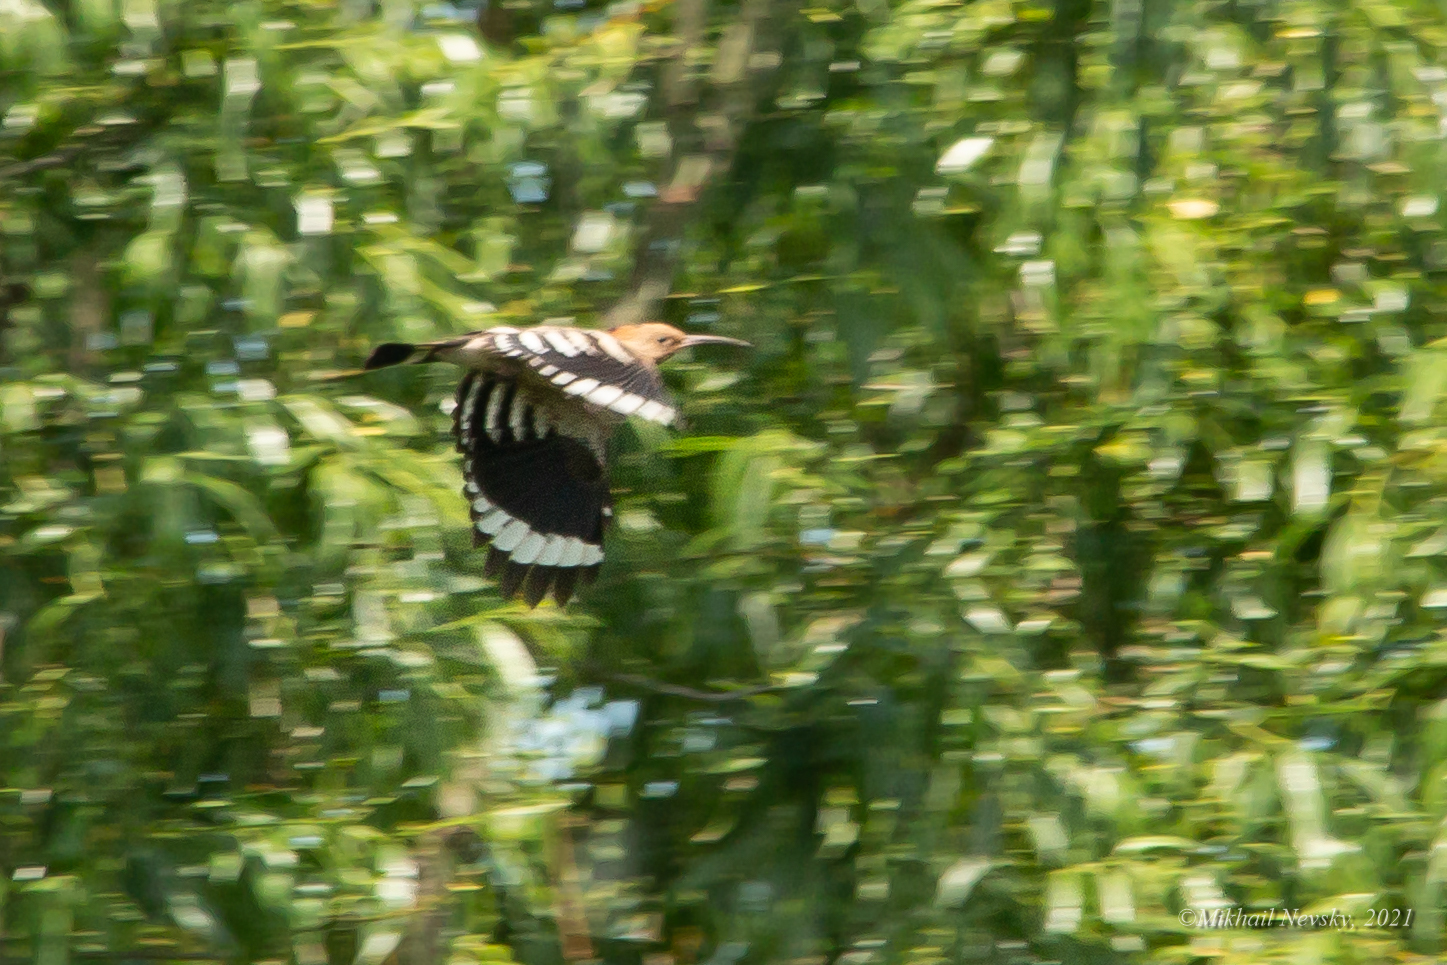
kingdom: Animalia
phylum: Chordata
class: Aves
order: Bucerotiformes
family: Upupidae
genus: Upupa
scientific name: Upupa epops
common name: Eurasian hoopoe
